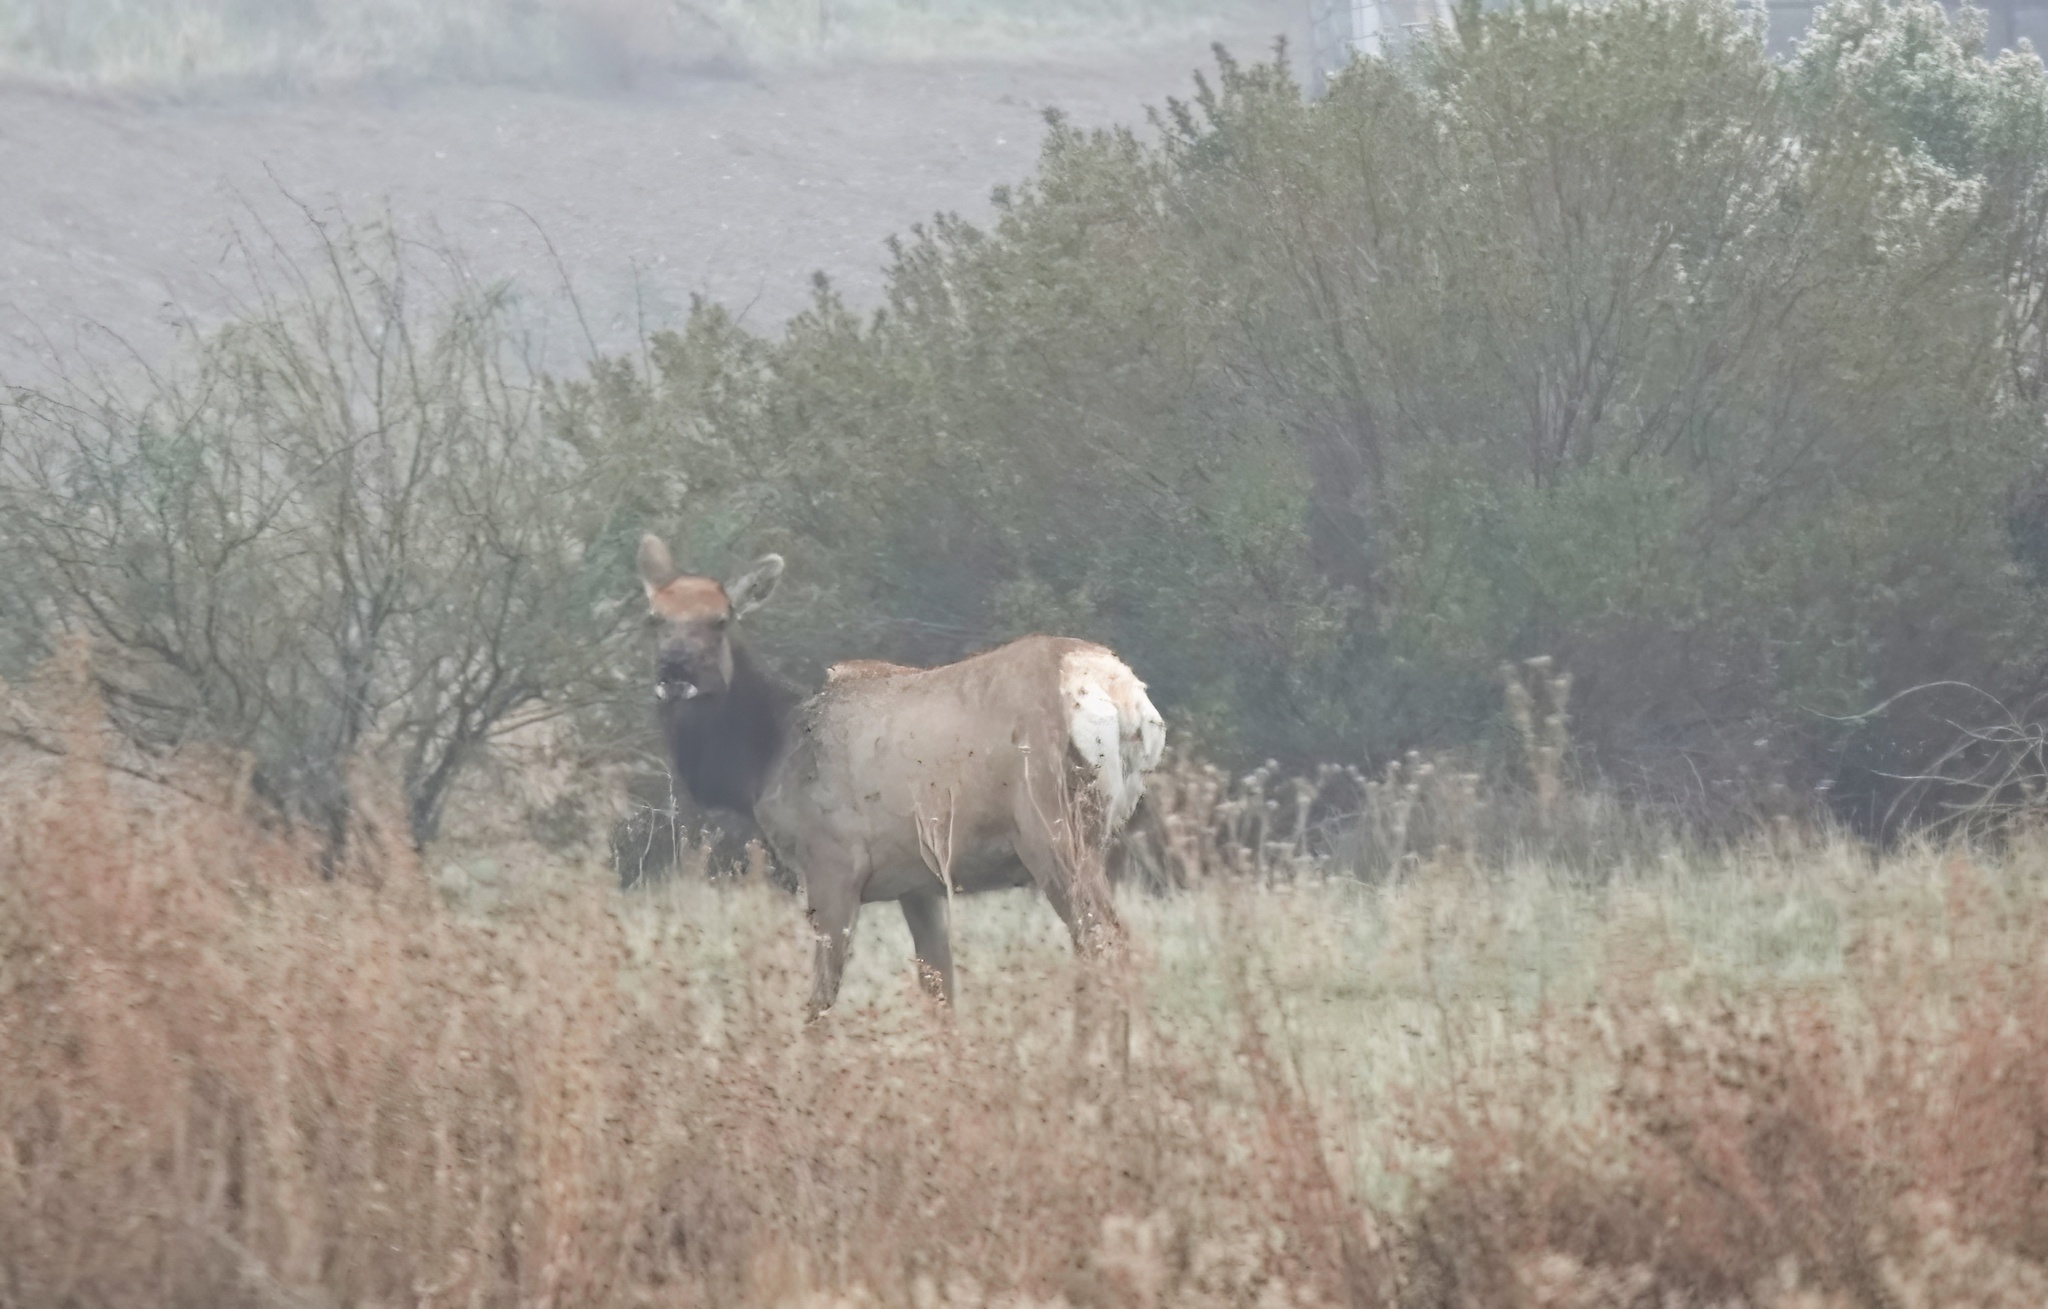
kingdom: Animalia
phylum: Chordata
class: Mammalia
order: Artiodactyla
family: Cervidae
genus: Cervus
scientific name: Cervus elaphus
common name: Red deer
